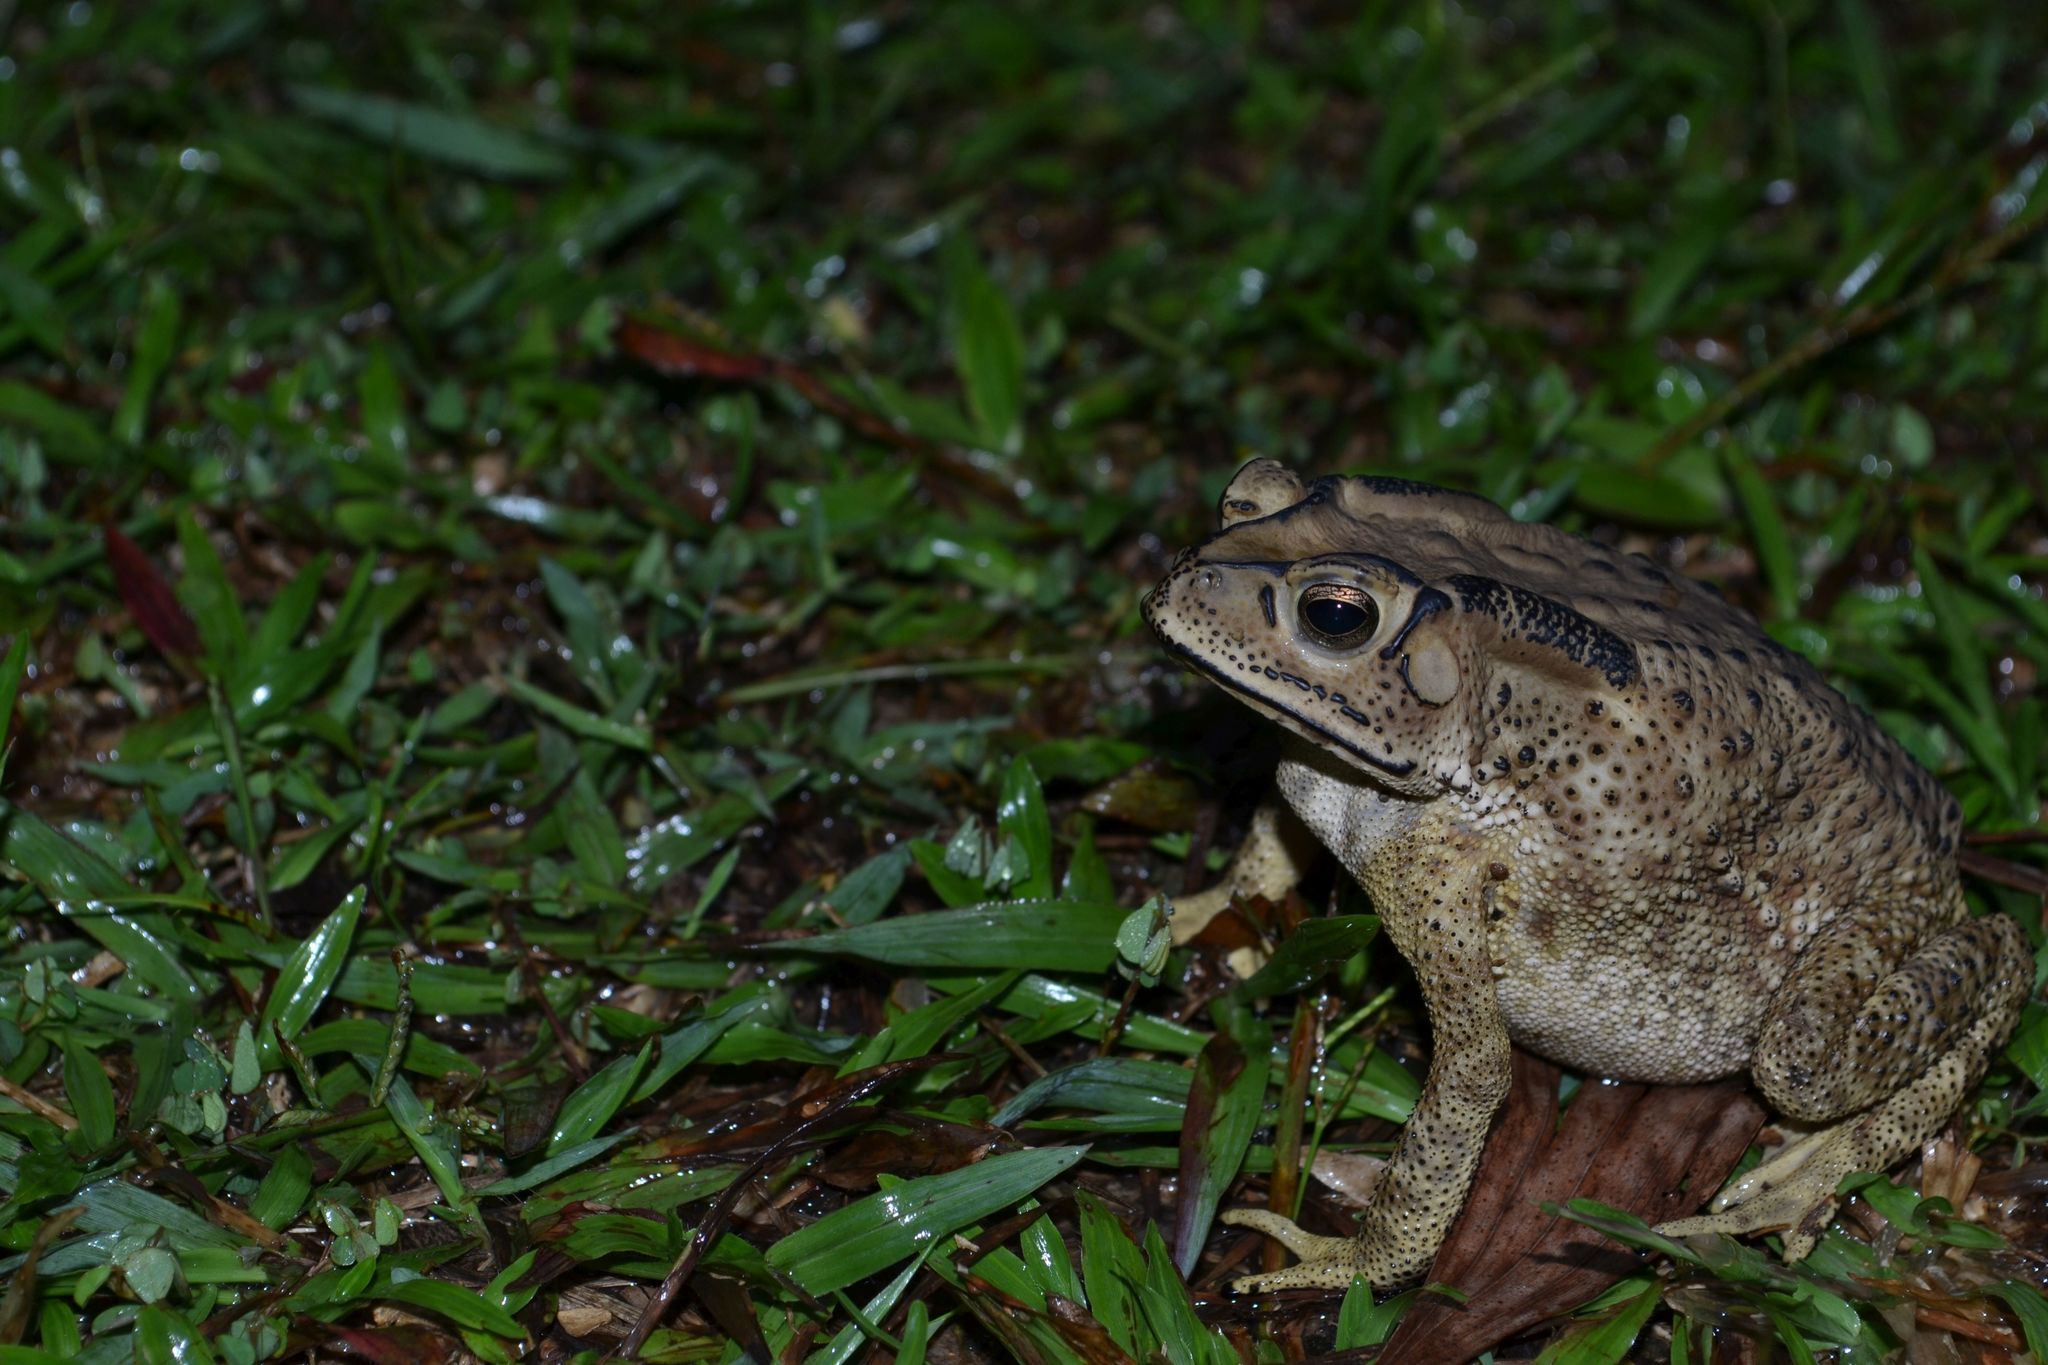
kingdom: Animalia
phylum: Chordata
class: Amphibia
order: Anura
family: Bufonidae
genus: Duttaphrynus
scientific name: Duttaphrynus melanostictus
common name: Common sunda toad
